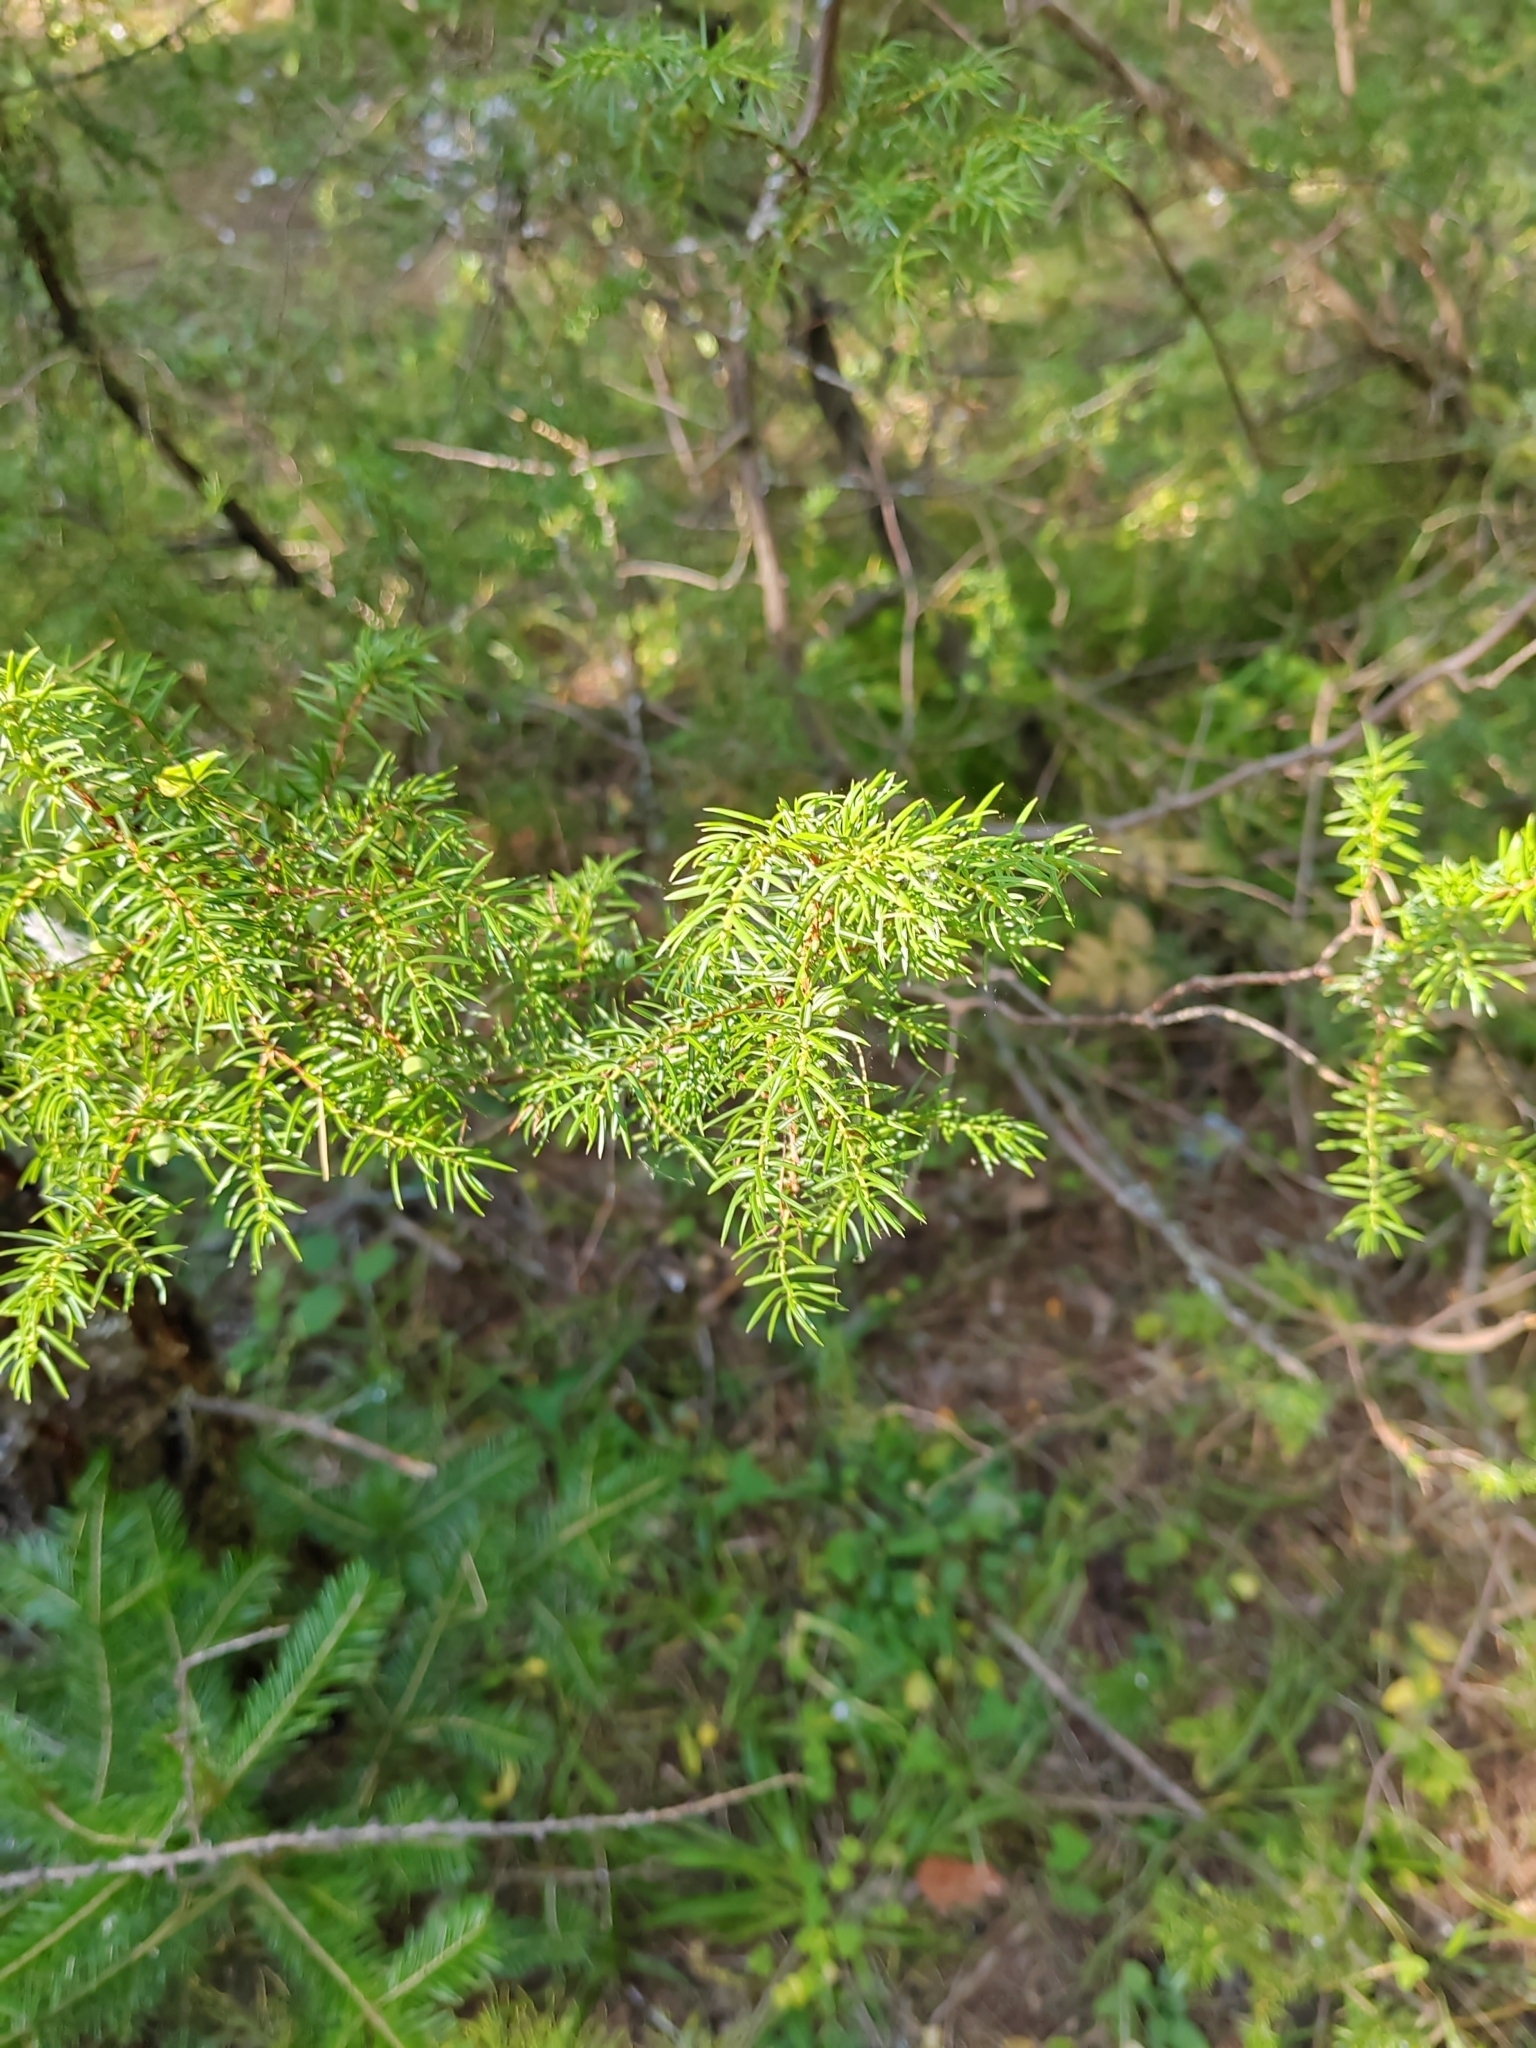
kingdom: Plantae
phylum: Tracheophyta
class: Pinopsida
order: Pinales
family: Cupressaceae
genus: Juniperus
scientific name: Juniperus communis
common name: Common juniper
